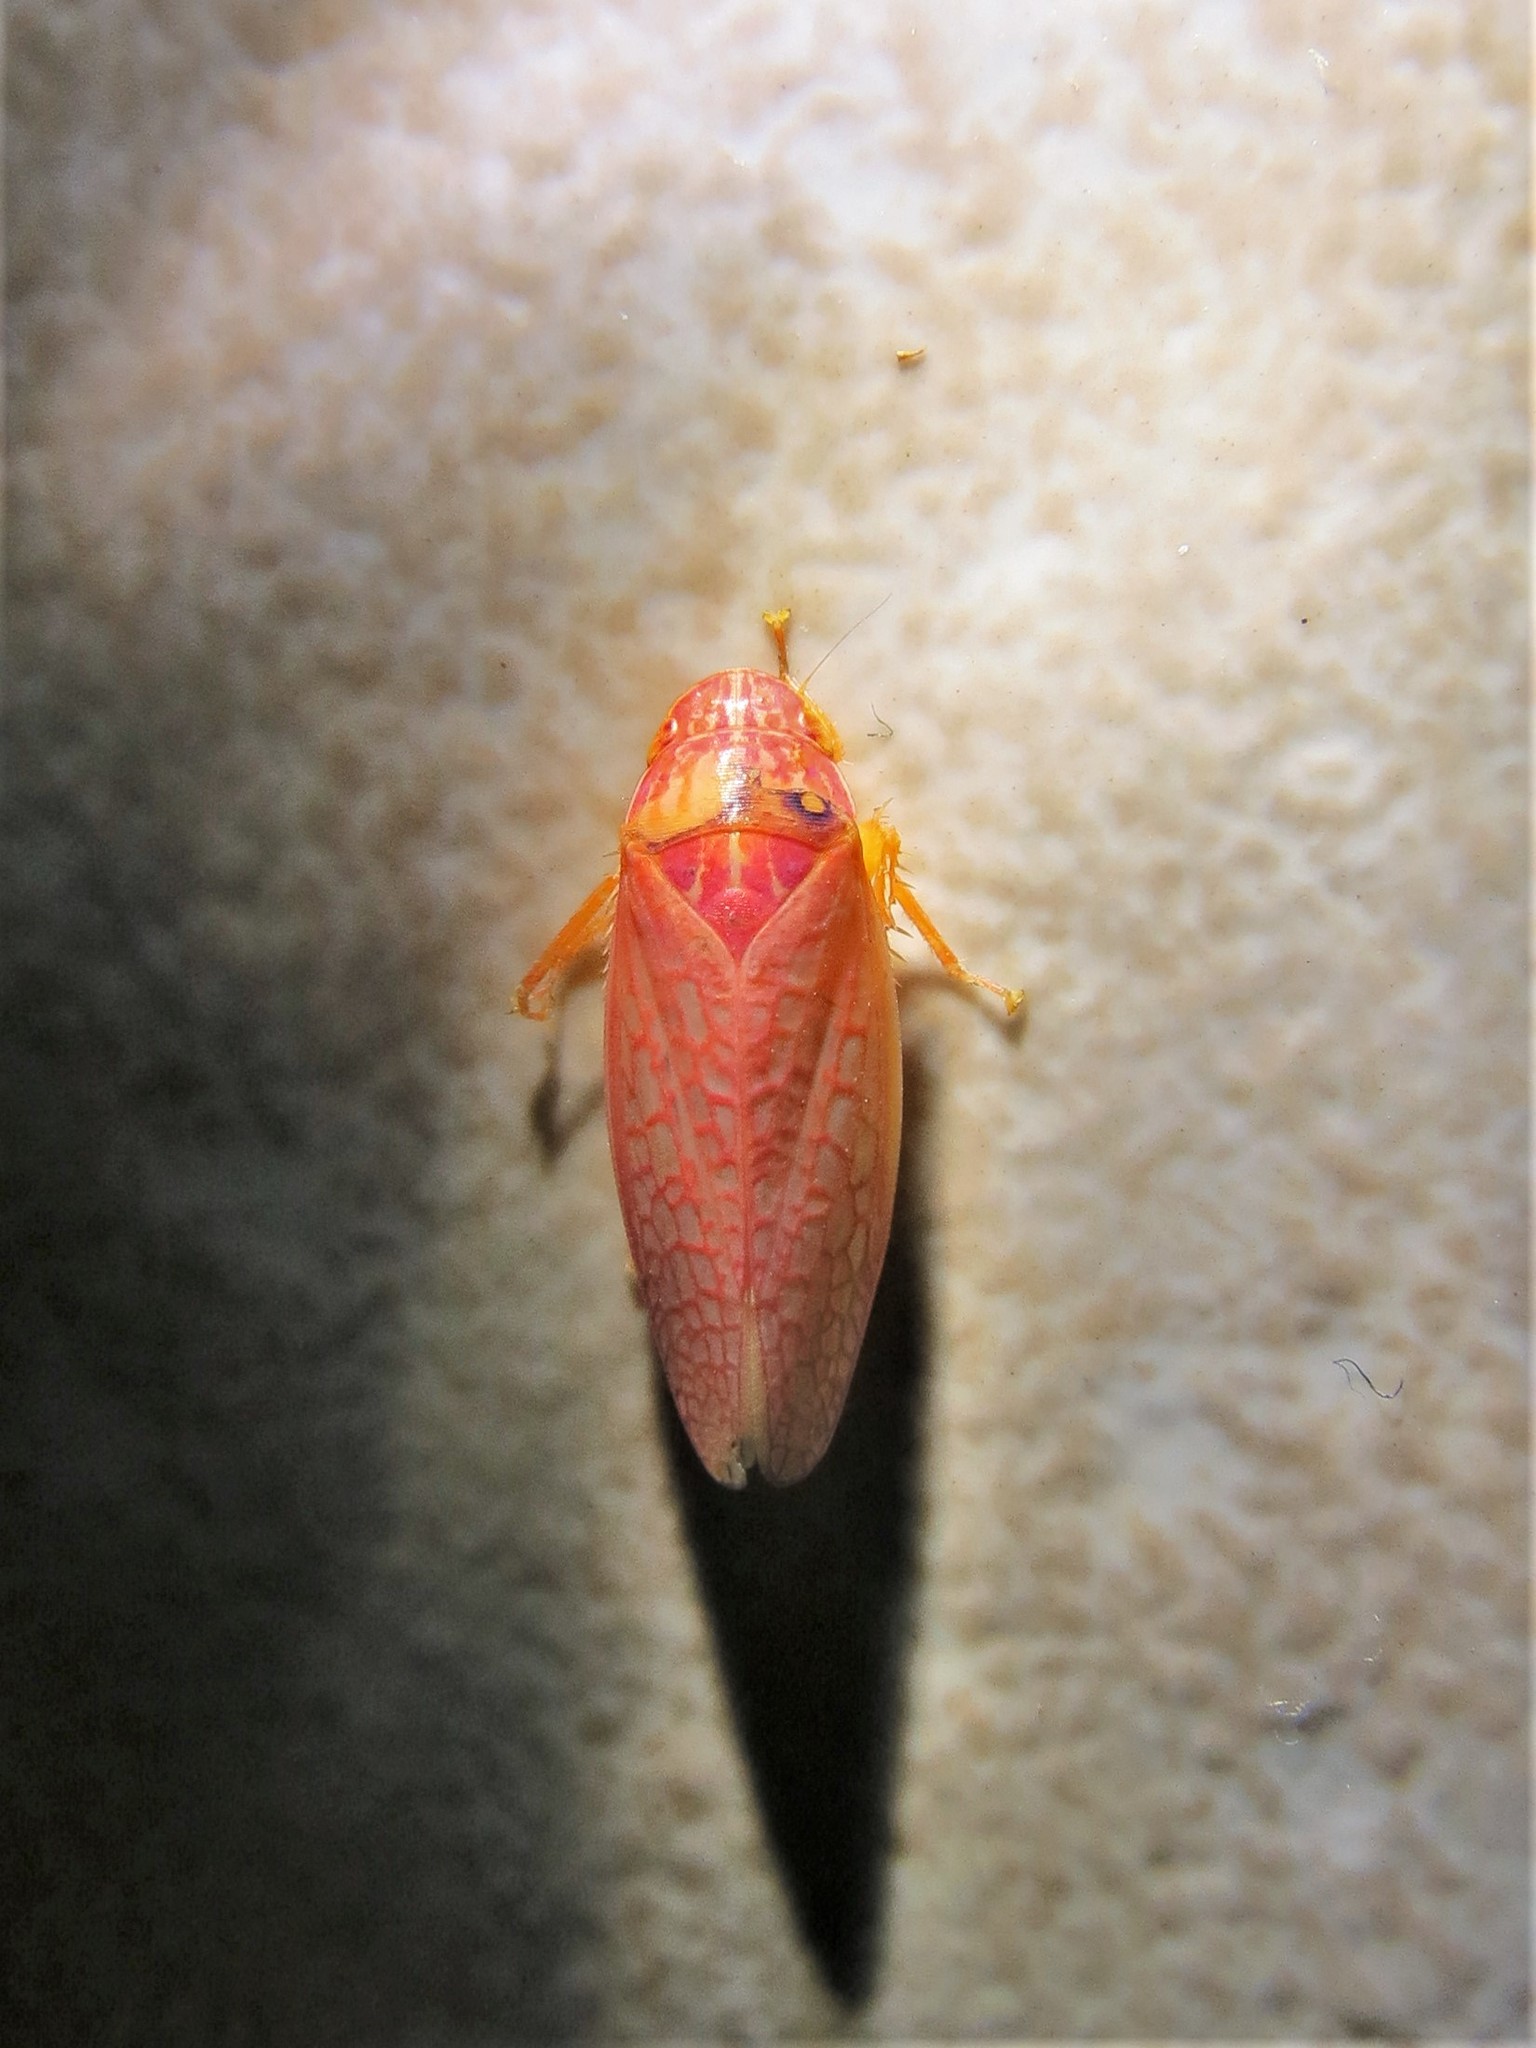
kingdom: Animalia
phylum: Arthropoda
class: Insecta
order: Hemiptera
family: Cicadellidae
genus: Gyponana
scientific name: Gyponana gladia
